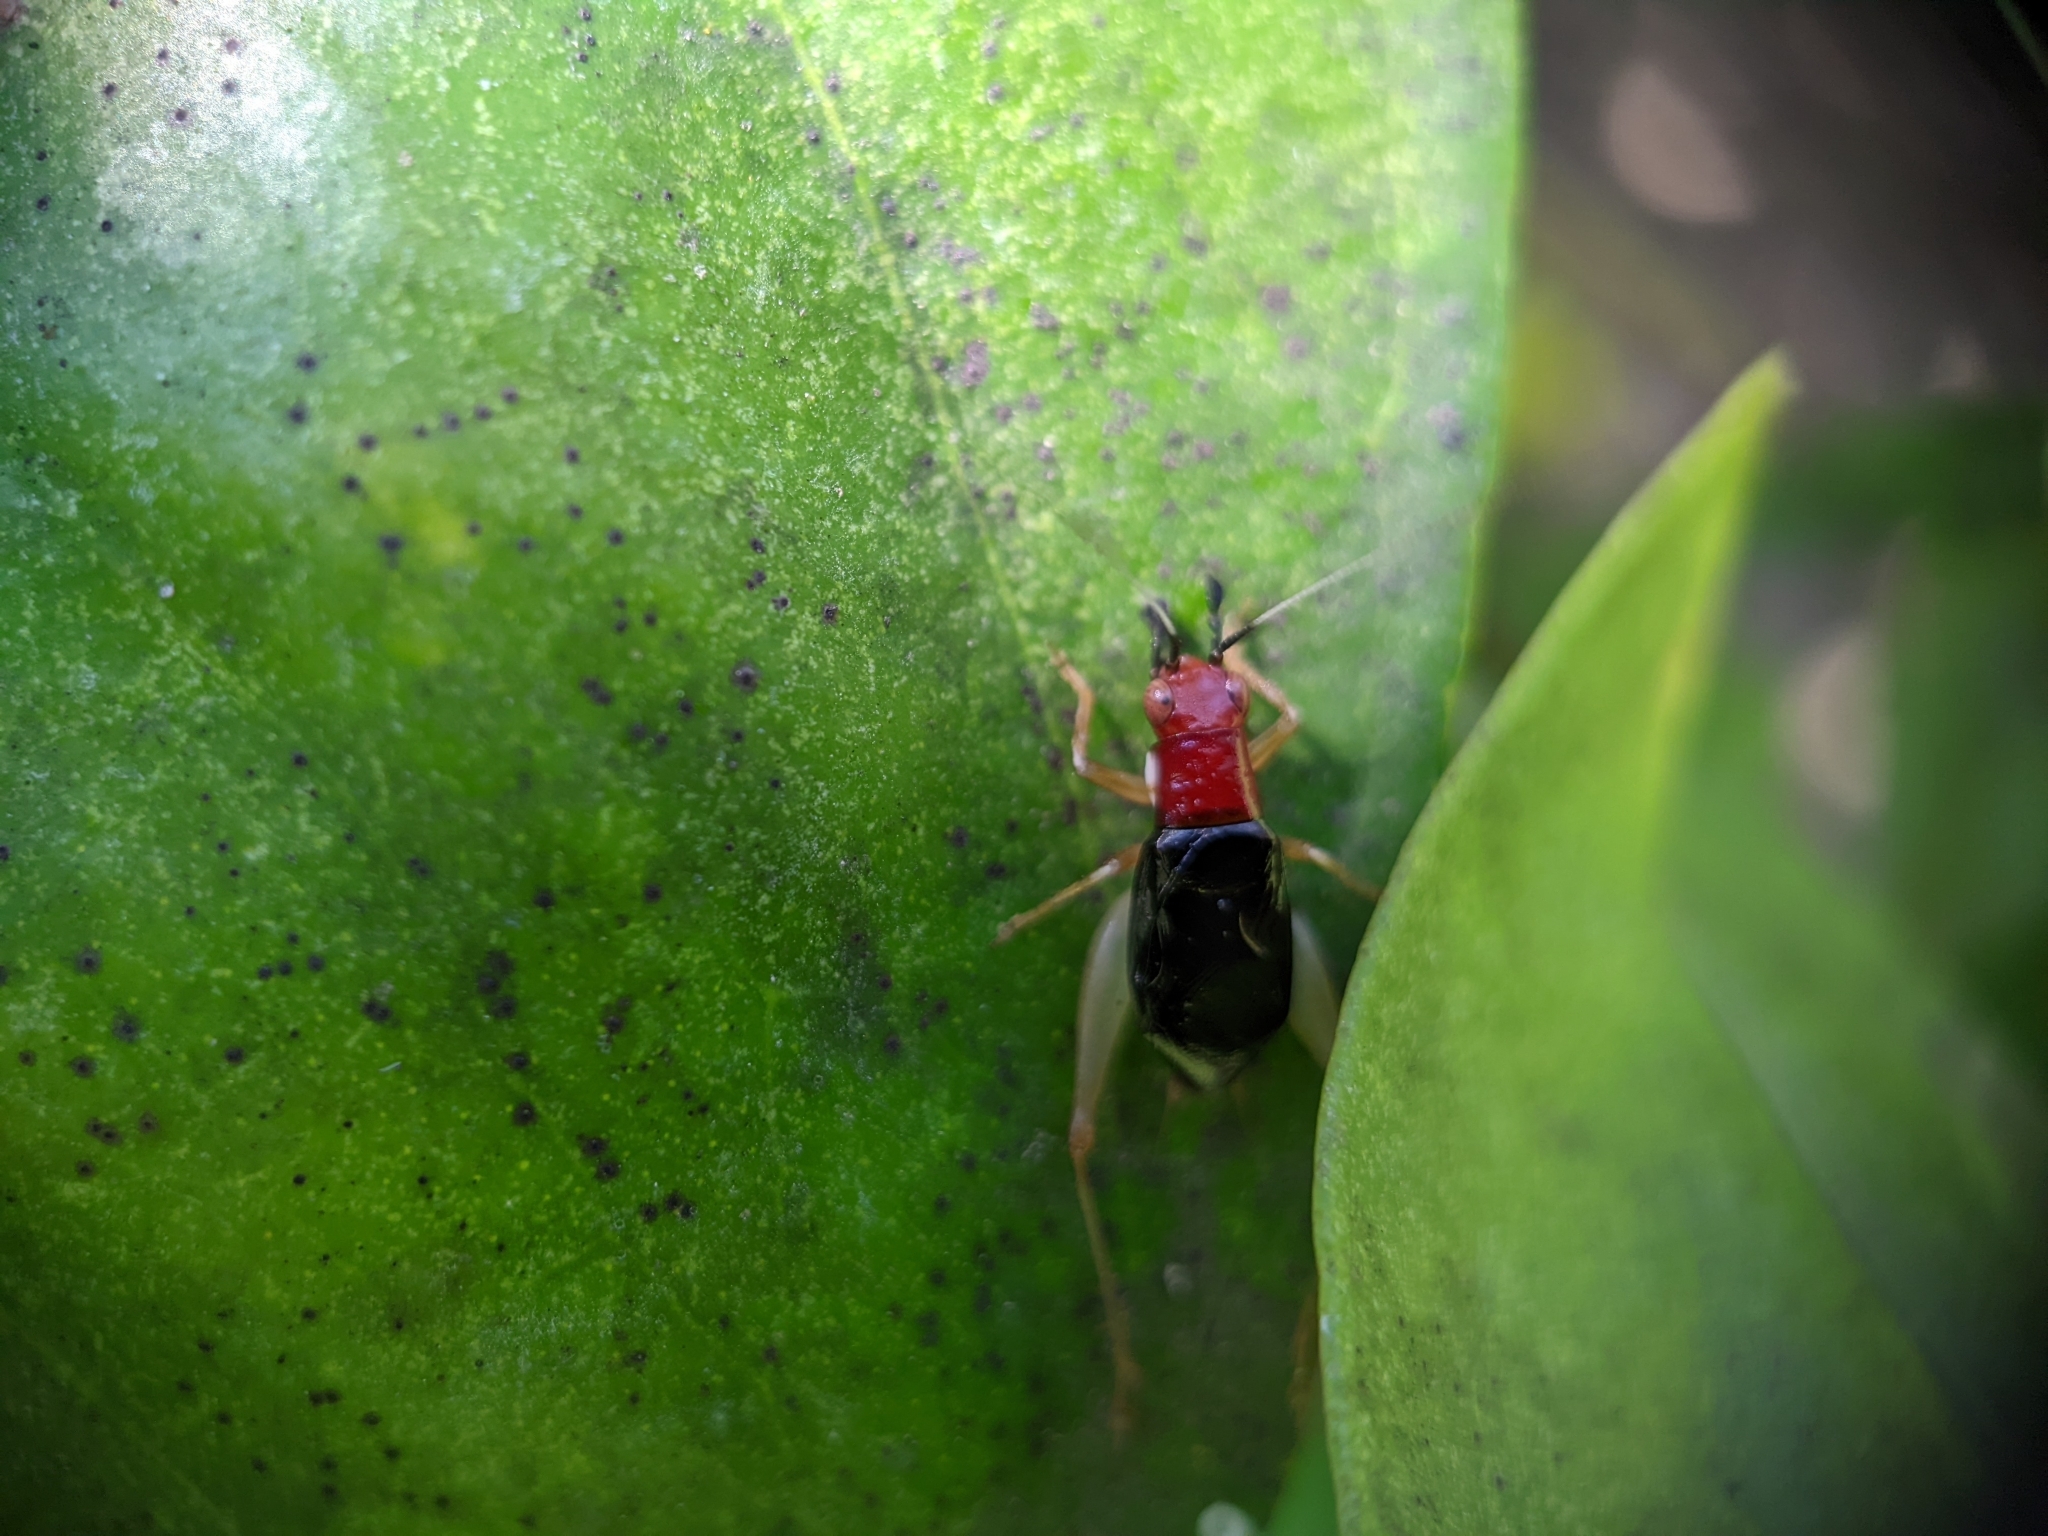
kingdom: Animalia
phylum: Arthropoda
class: Insecta
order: Orthoptera
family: Trigonidiidae
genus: Phyllopalpus
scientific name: Phyllopalpus pulchellus
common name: Handsome trig
